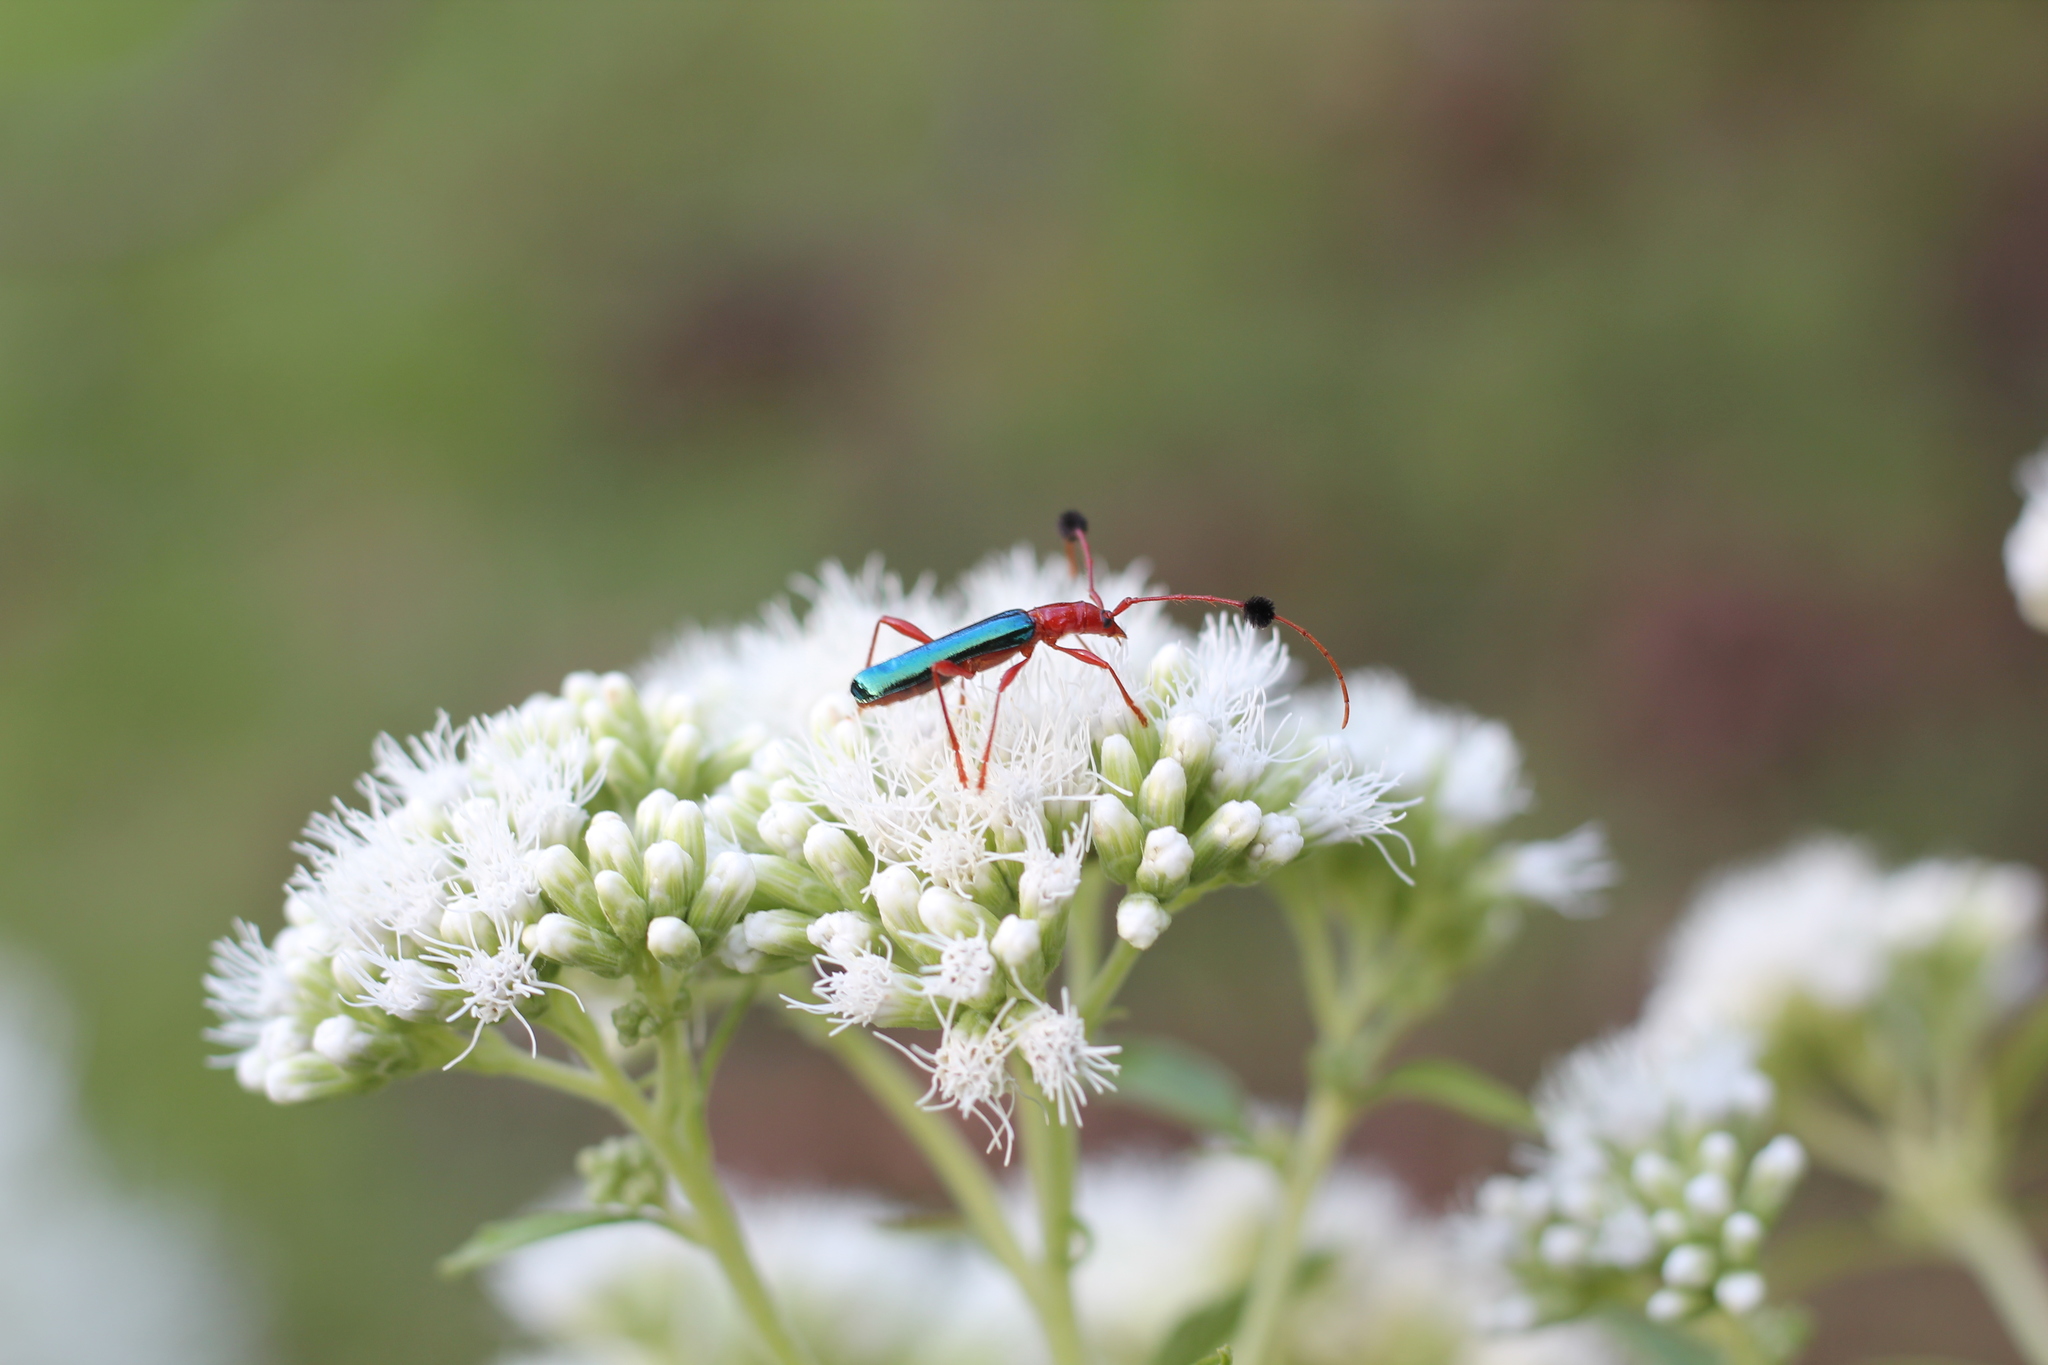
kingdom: Animalia
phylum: Arthropoda
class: Insecta
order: Coleoptera
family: Cerambycidae
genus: Paromoeocerus
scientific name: Paromoeocerus barbicornis
